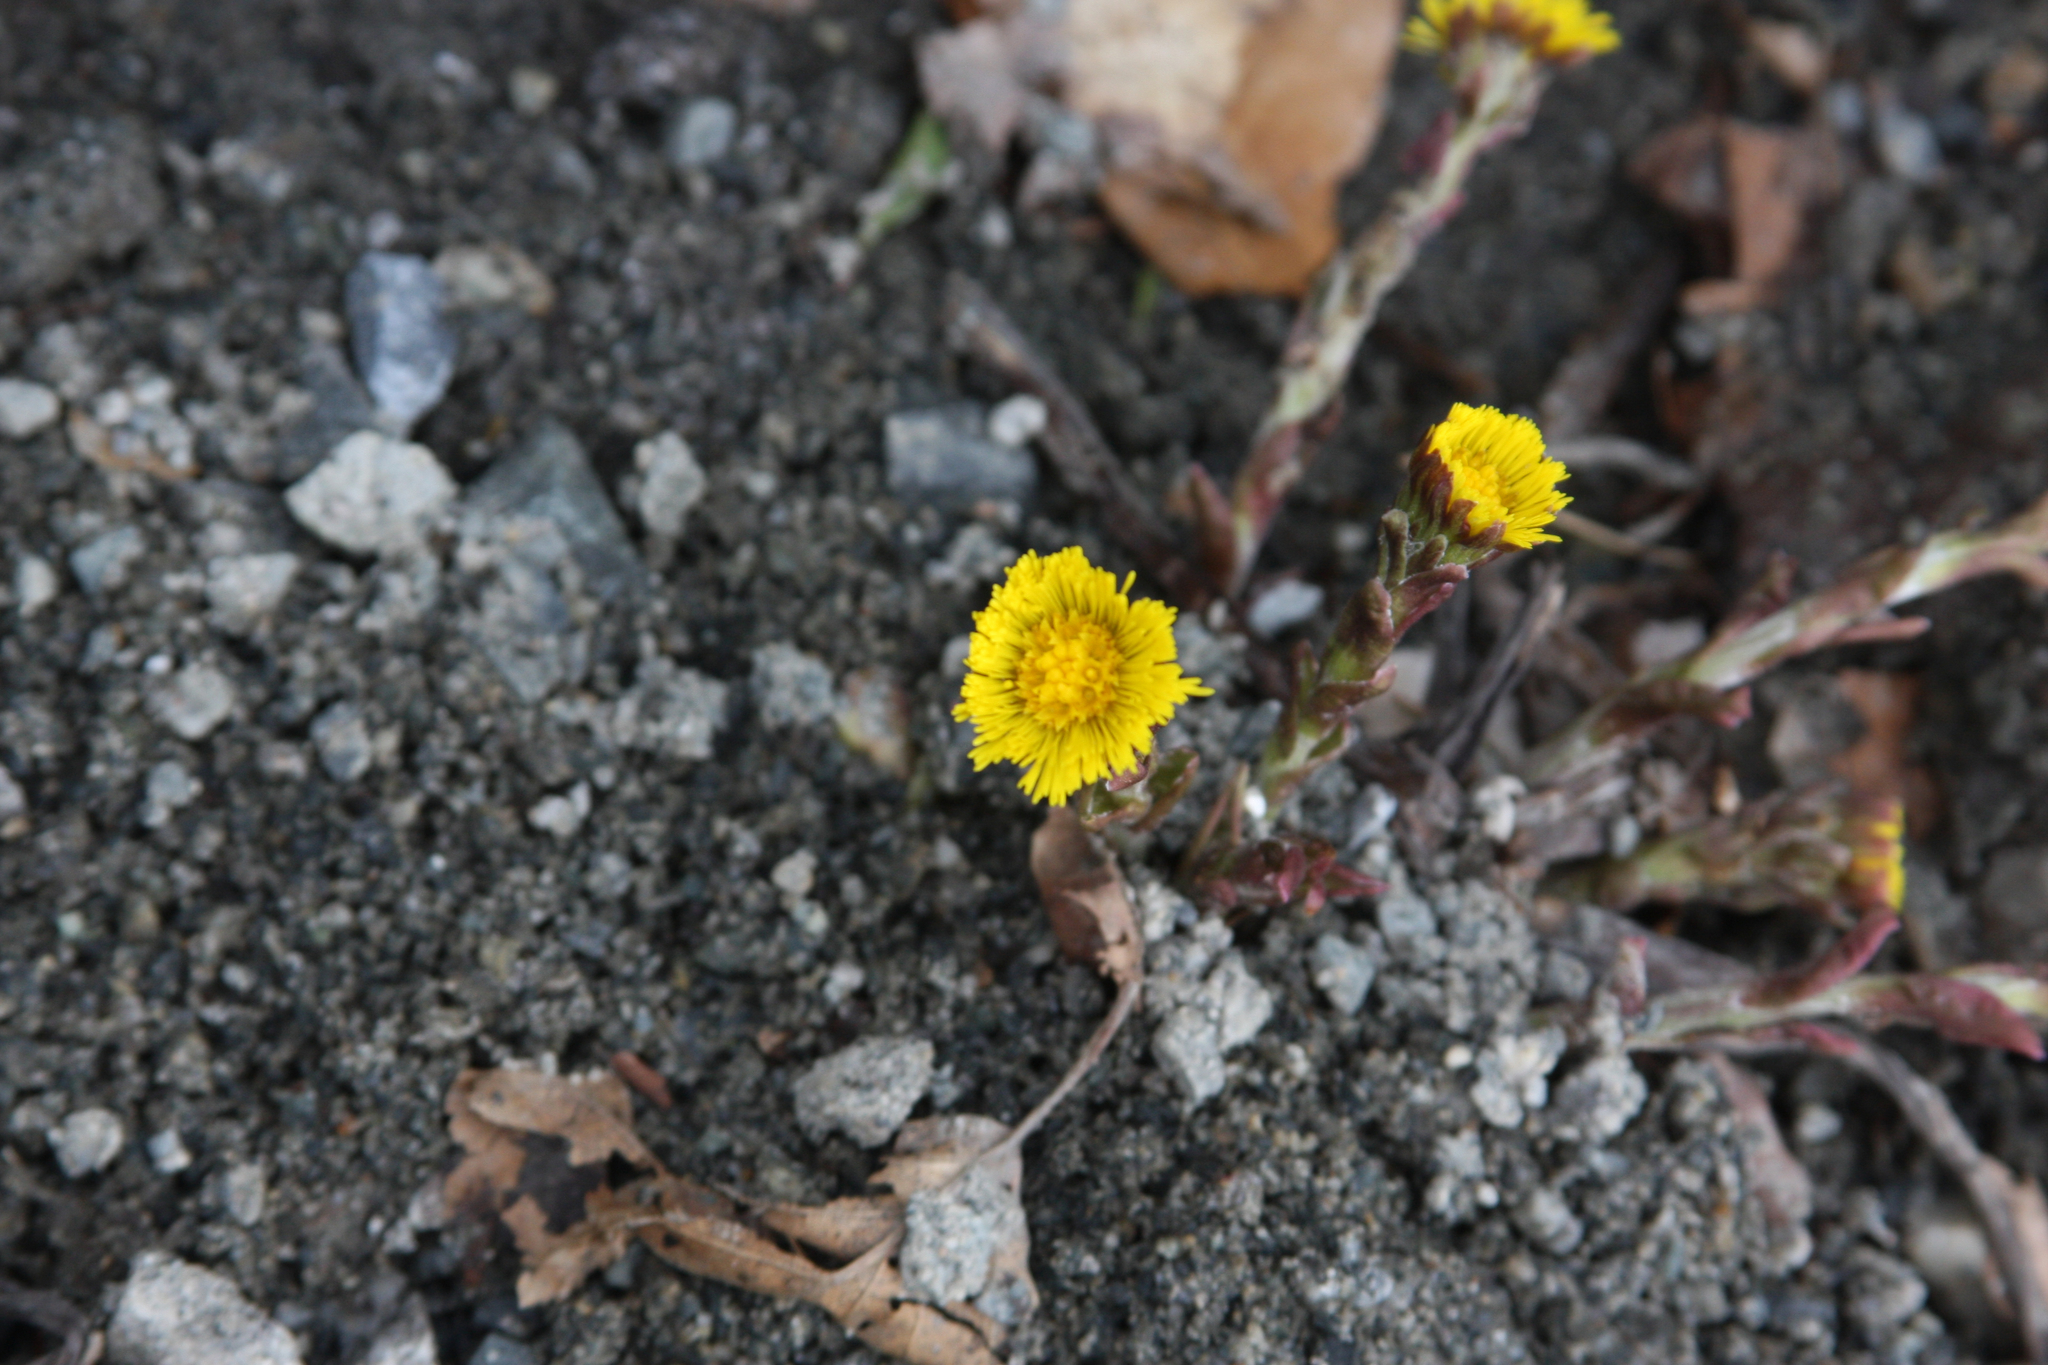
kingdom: Plantae
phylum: Tracheophyta
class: Magnoliopsida
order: Asterales
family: Asteraceae
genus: Tussilago
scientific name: Tussilago farfara
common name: Coltsfoot
